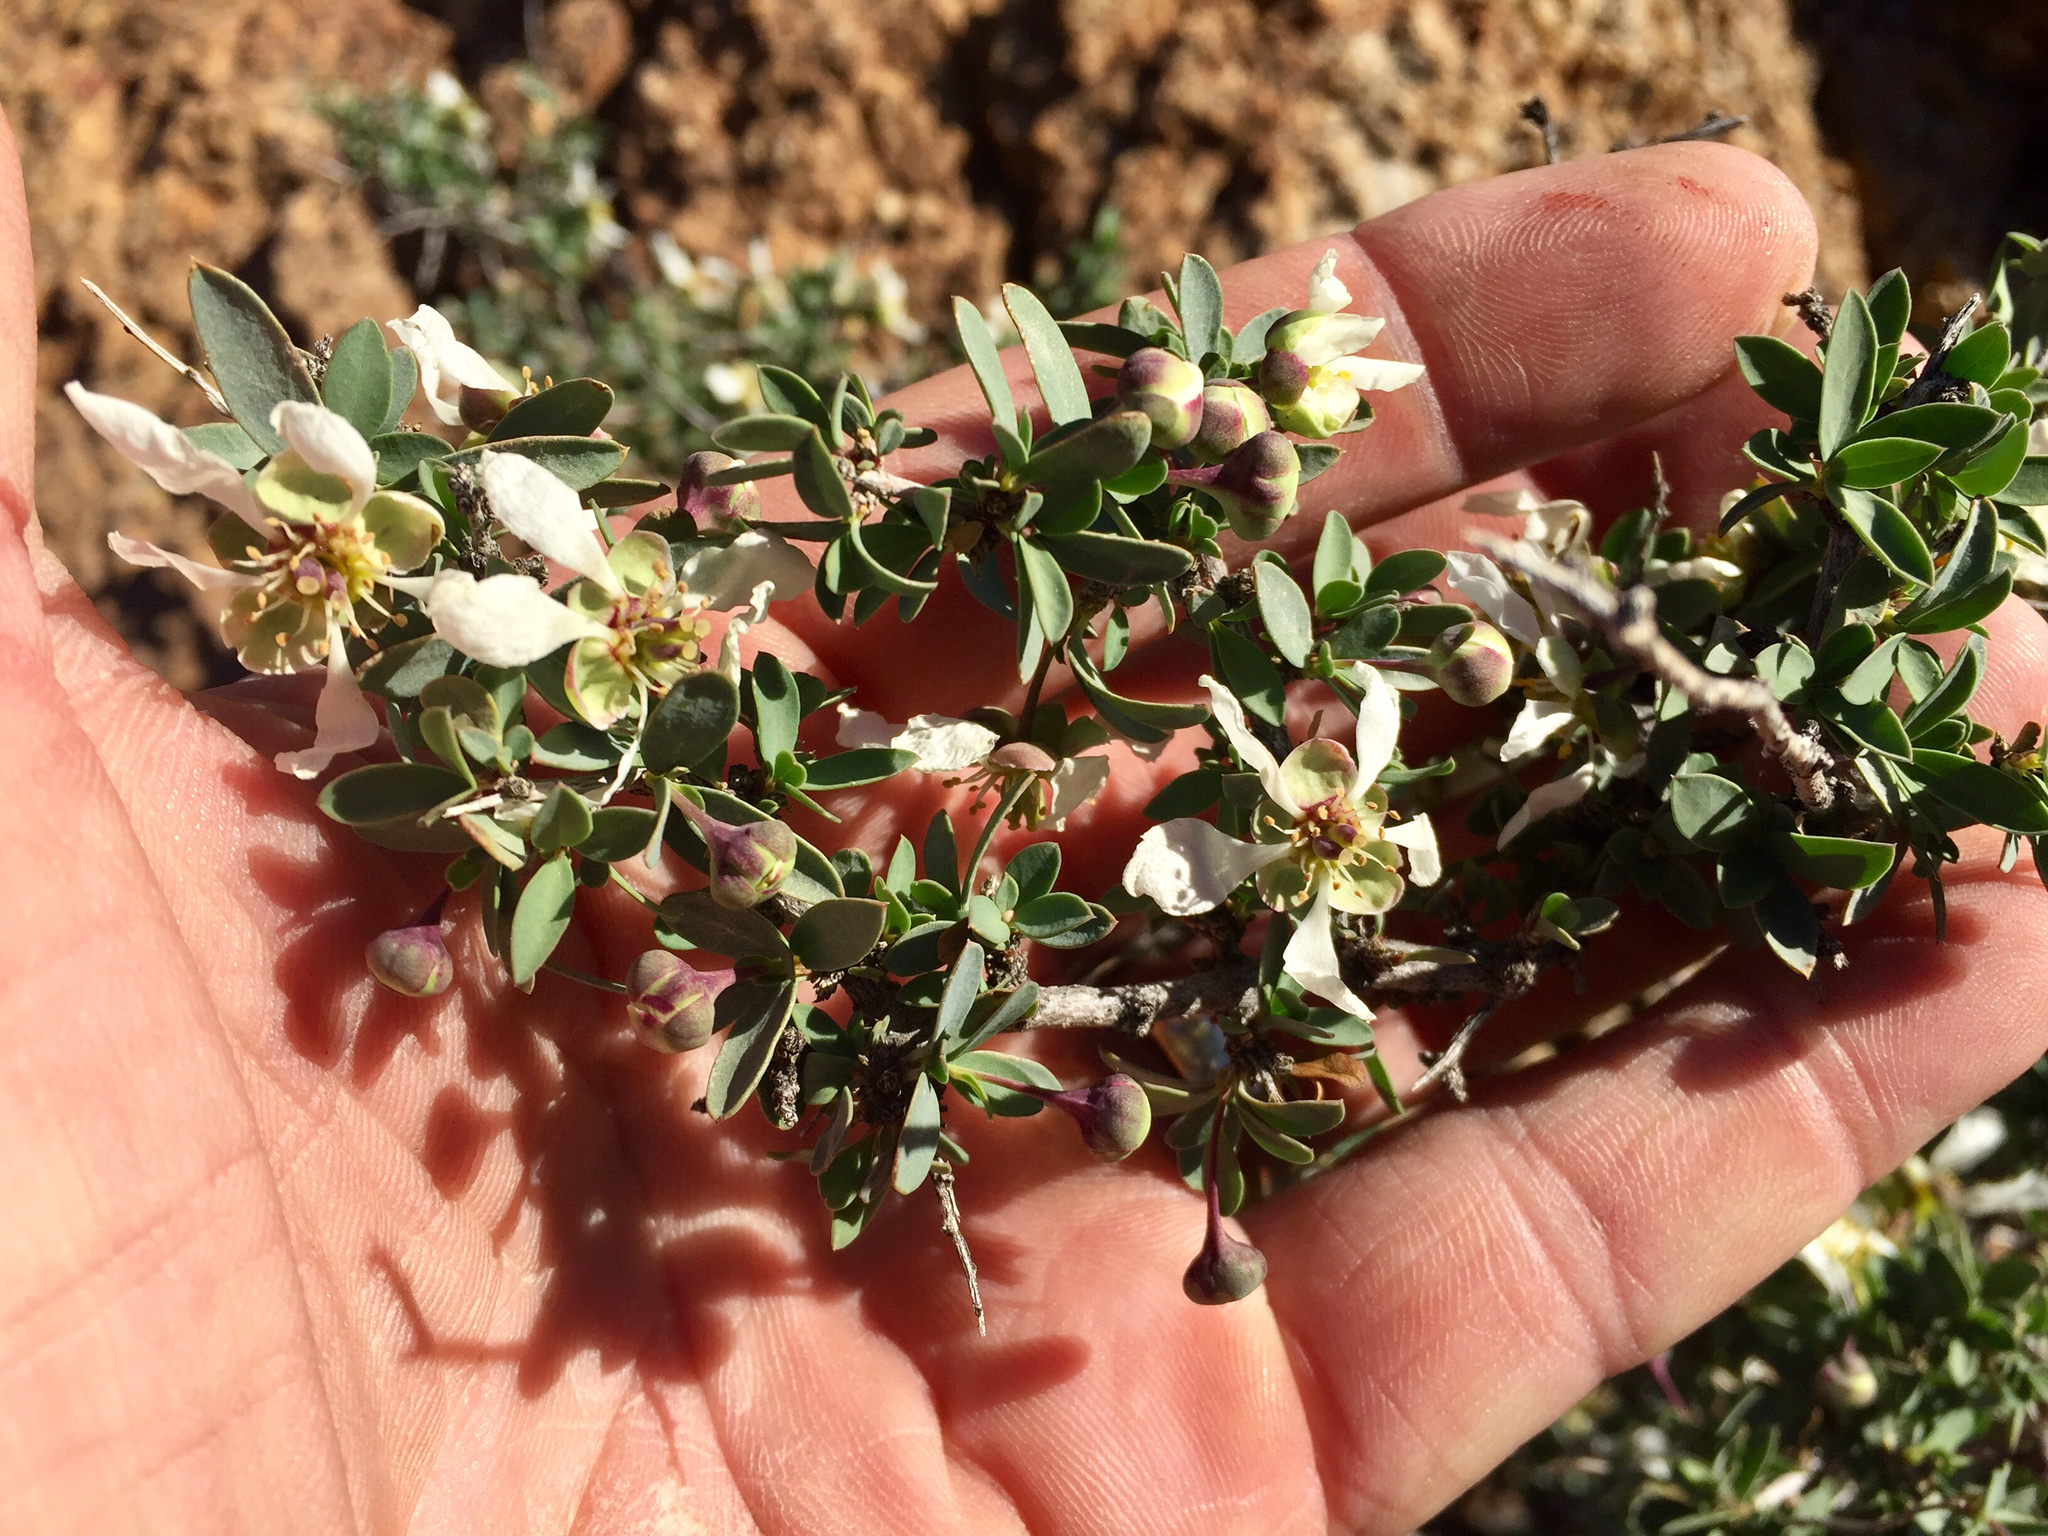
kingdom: Plantae
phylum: Tracheophyta
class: Magnoliopsida
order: Crossosomatales
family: Crossosomataceae
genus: Crossosoma
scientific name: Crossosoma bigelovii
